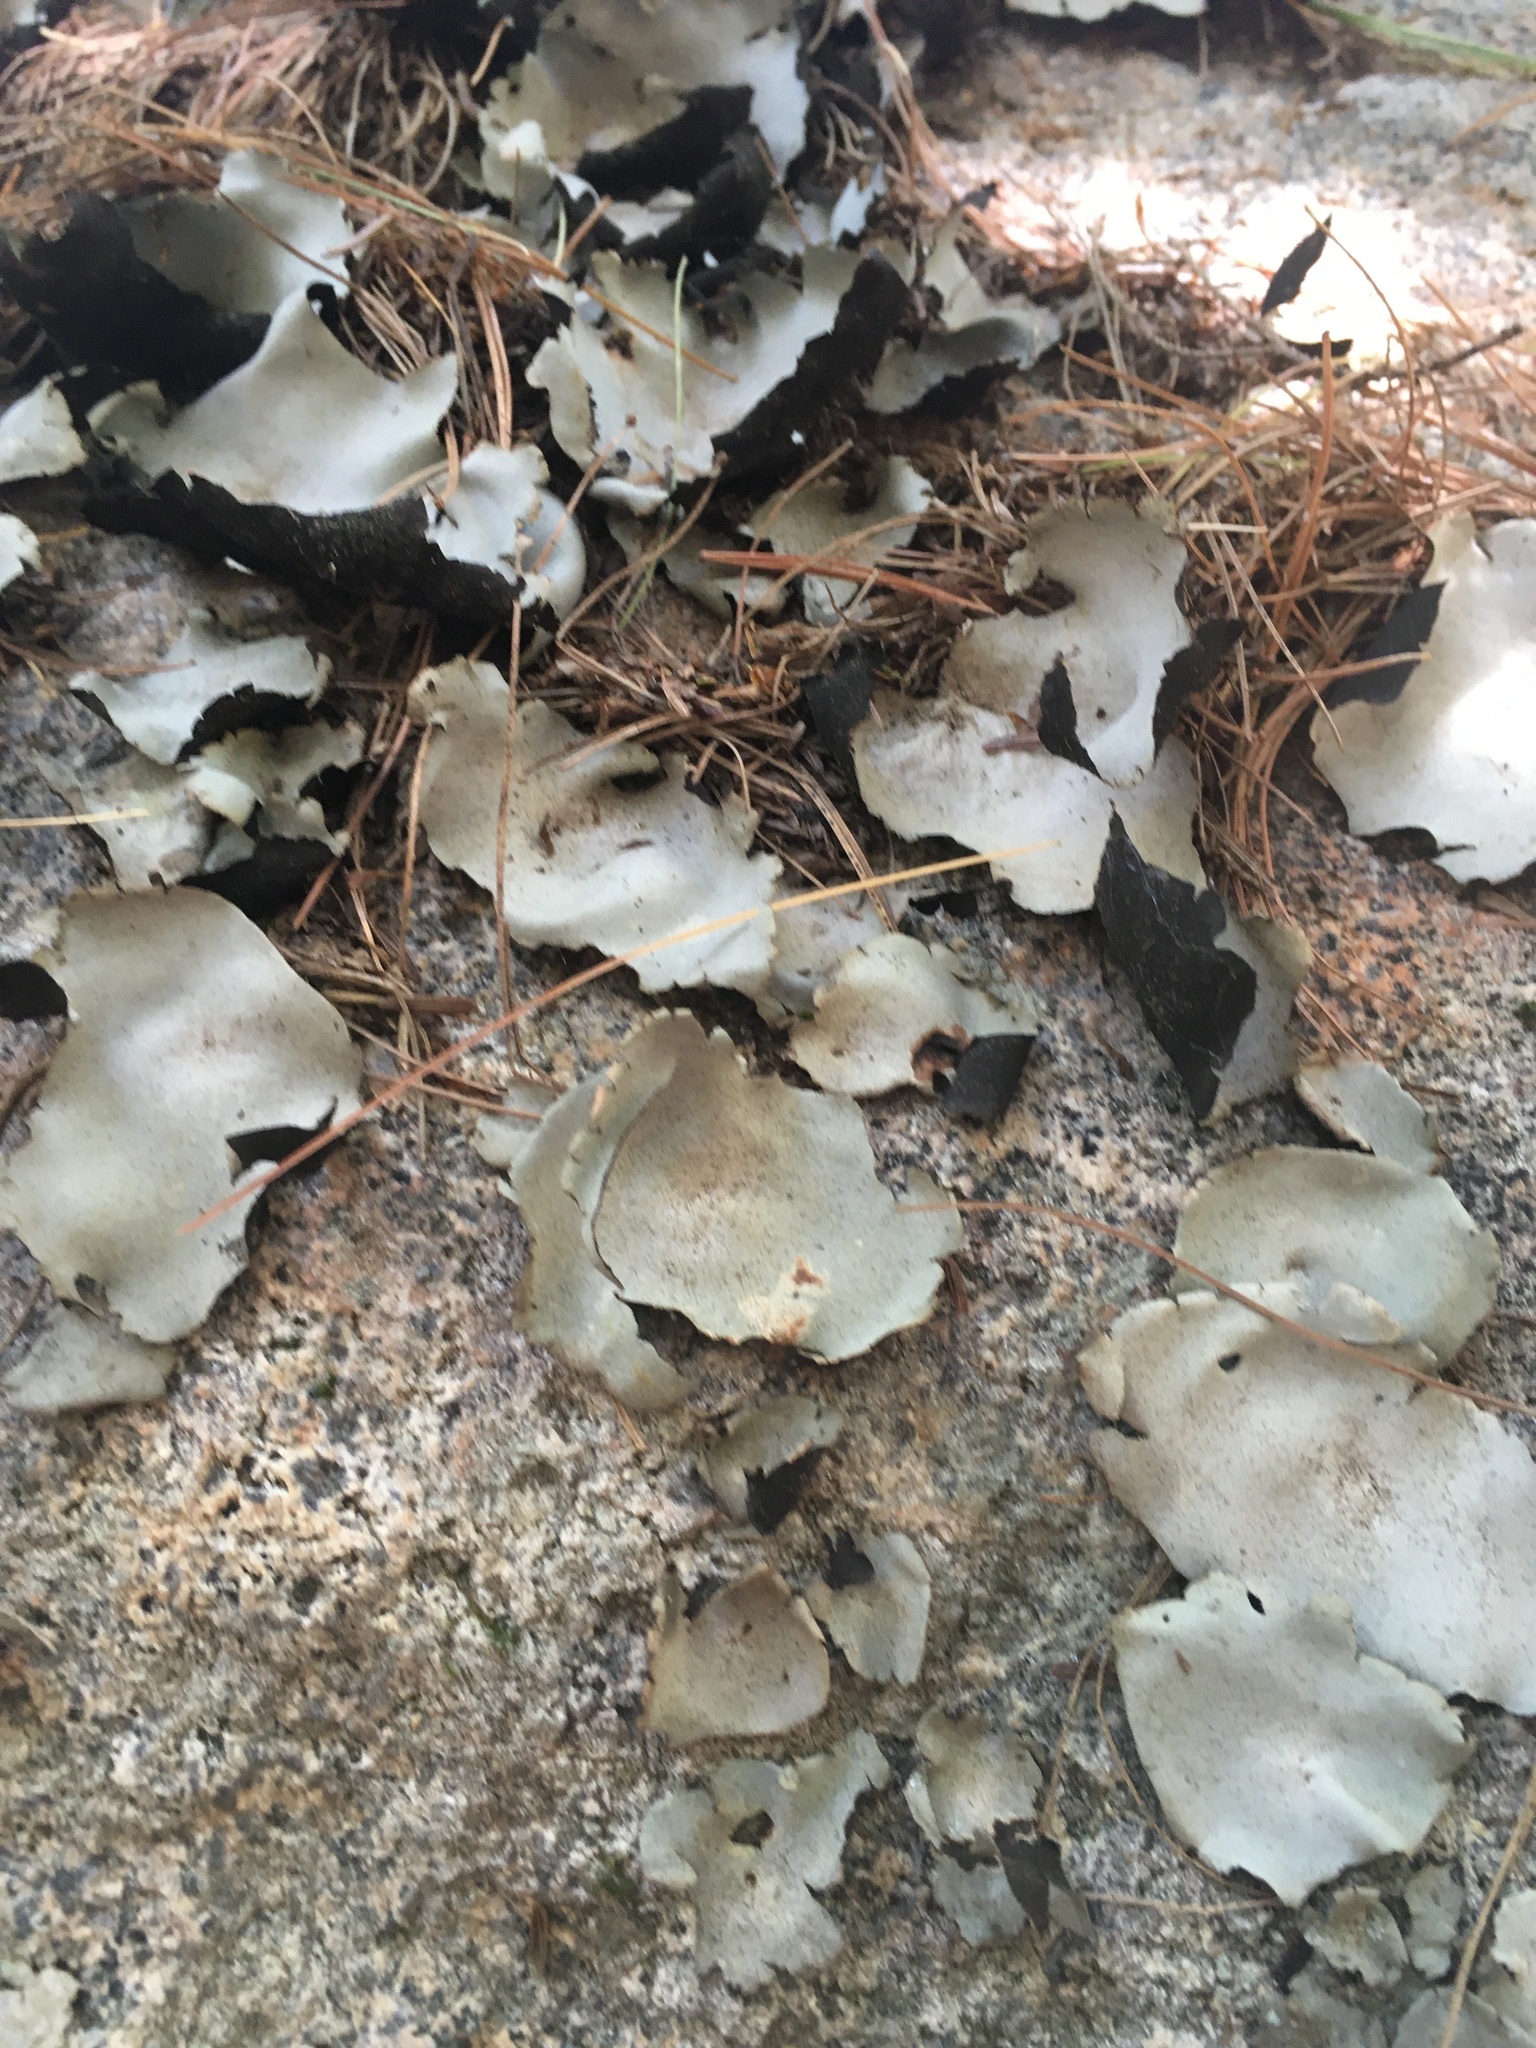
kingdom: Fungi
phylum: Ascomycota
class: Lecanoromycetes
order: Umbilicariales
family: Umbilicariaceae
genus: Umbilicaria
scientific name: Umbilicaria mammulata
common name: Smooth rock tripe
